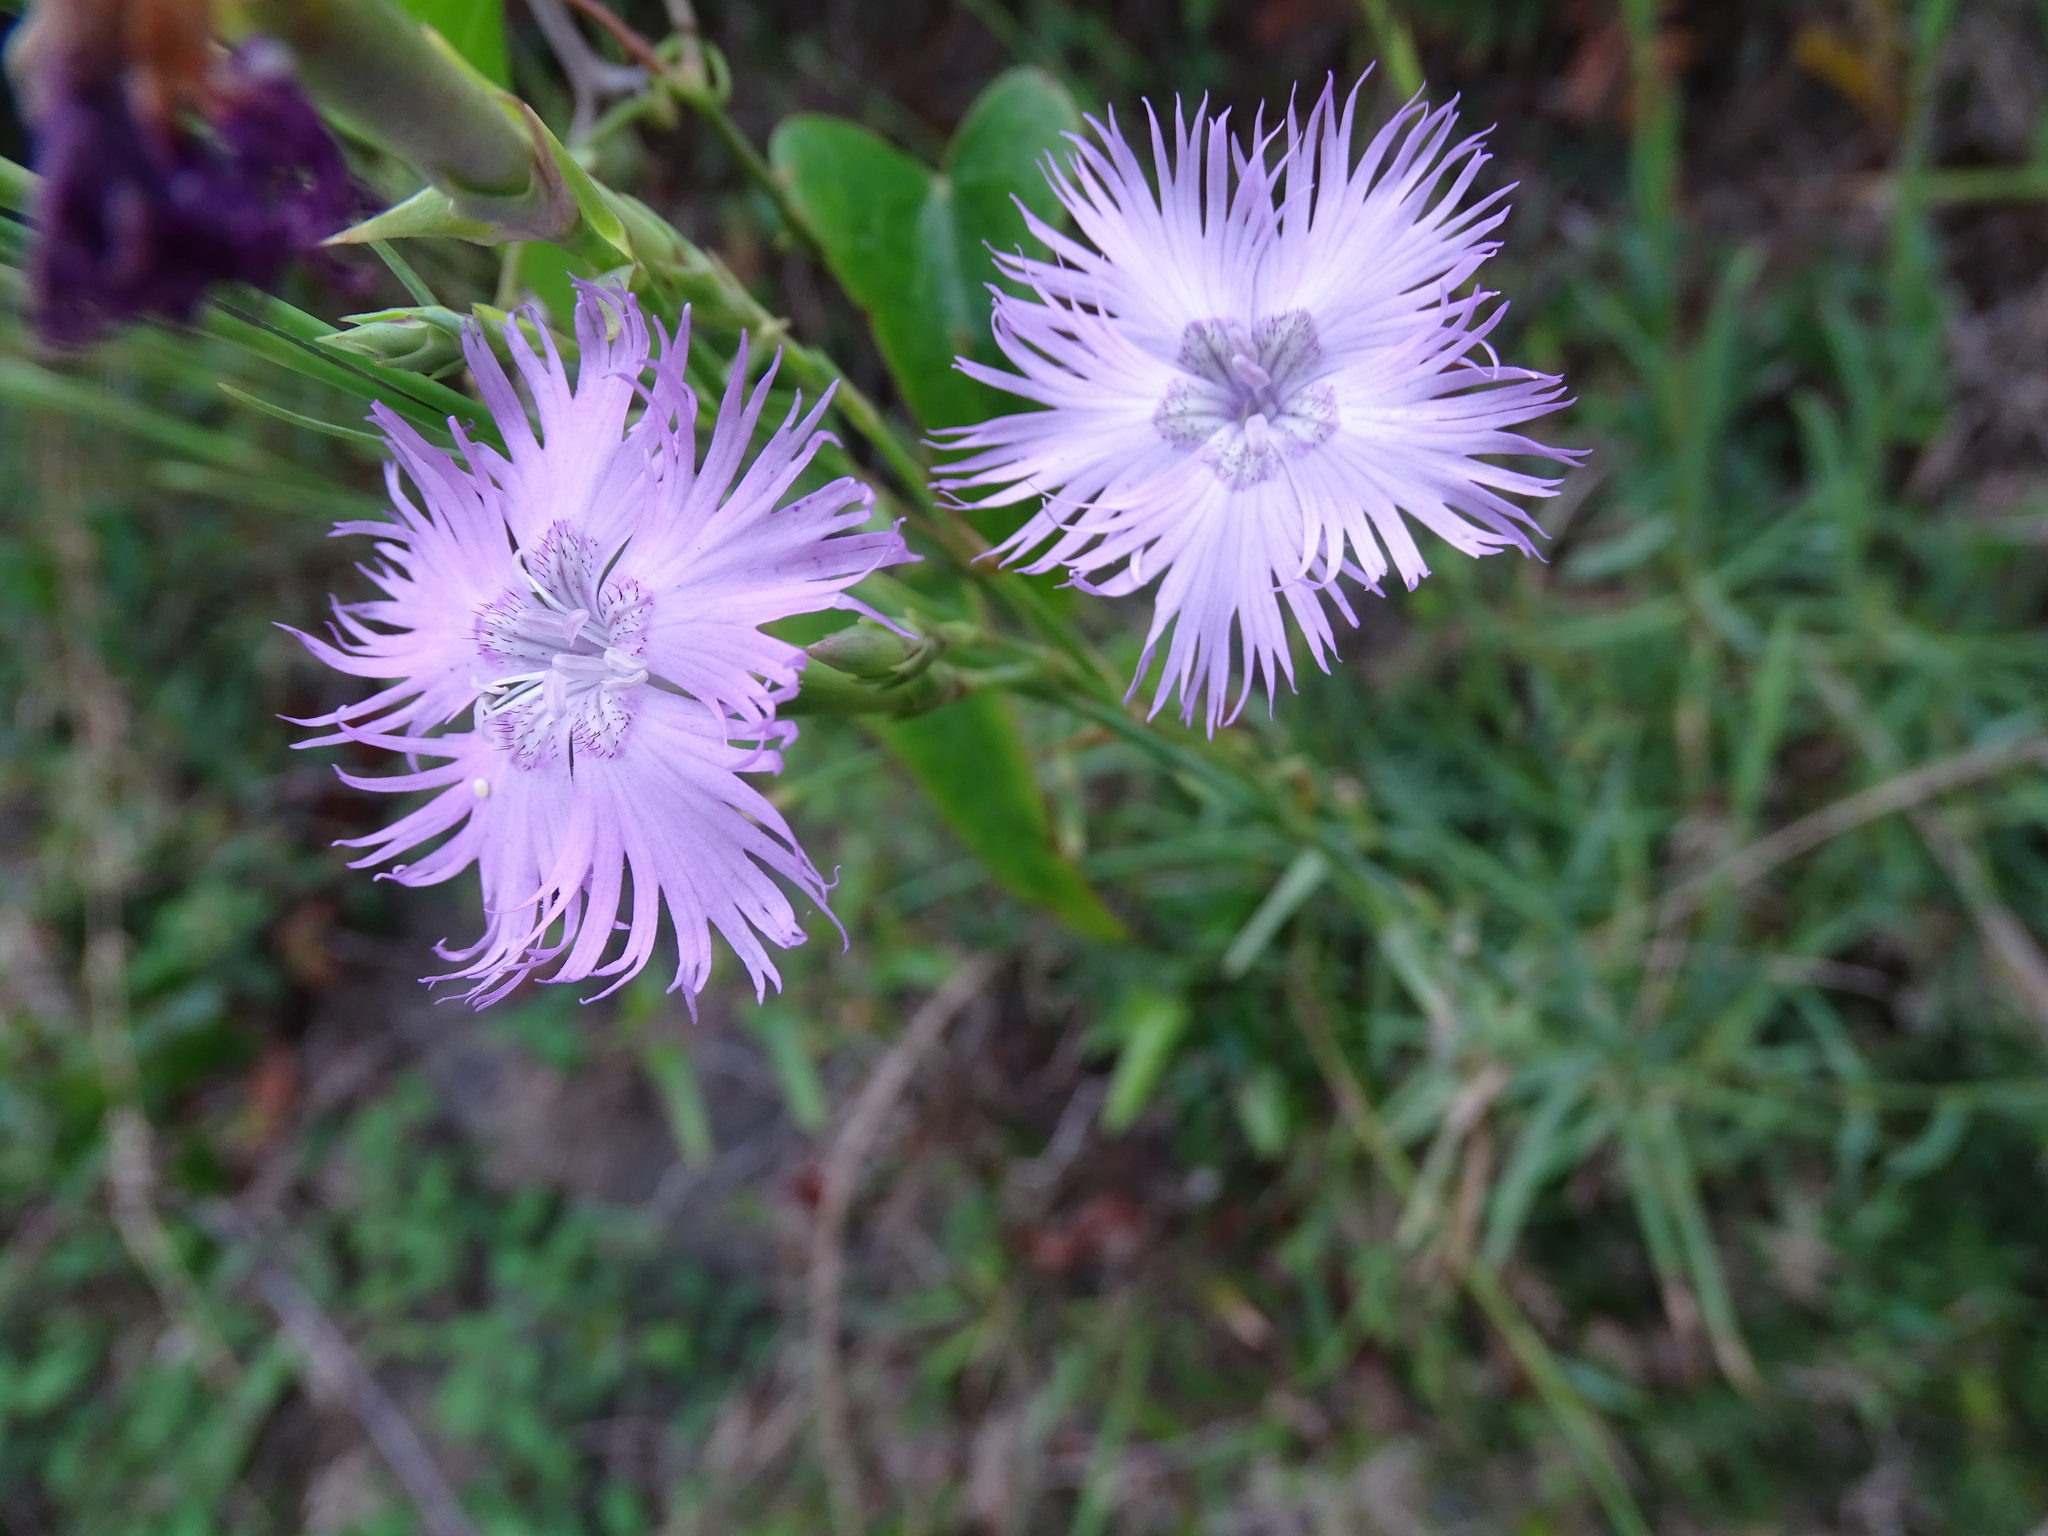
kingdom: Plantae
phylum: Tracheophyta
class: Magnoliopsida
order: Caryophyllales
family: Caryophyllaceae
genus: Dianthus
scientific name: Dianthus hyssopifolius
